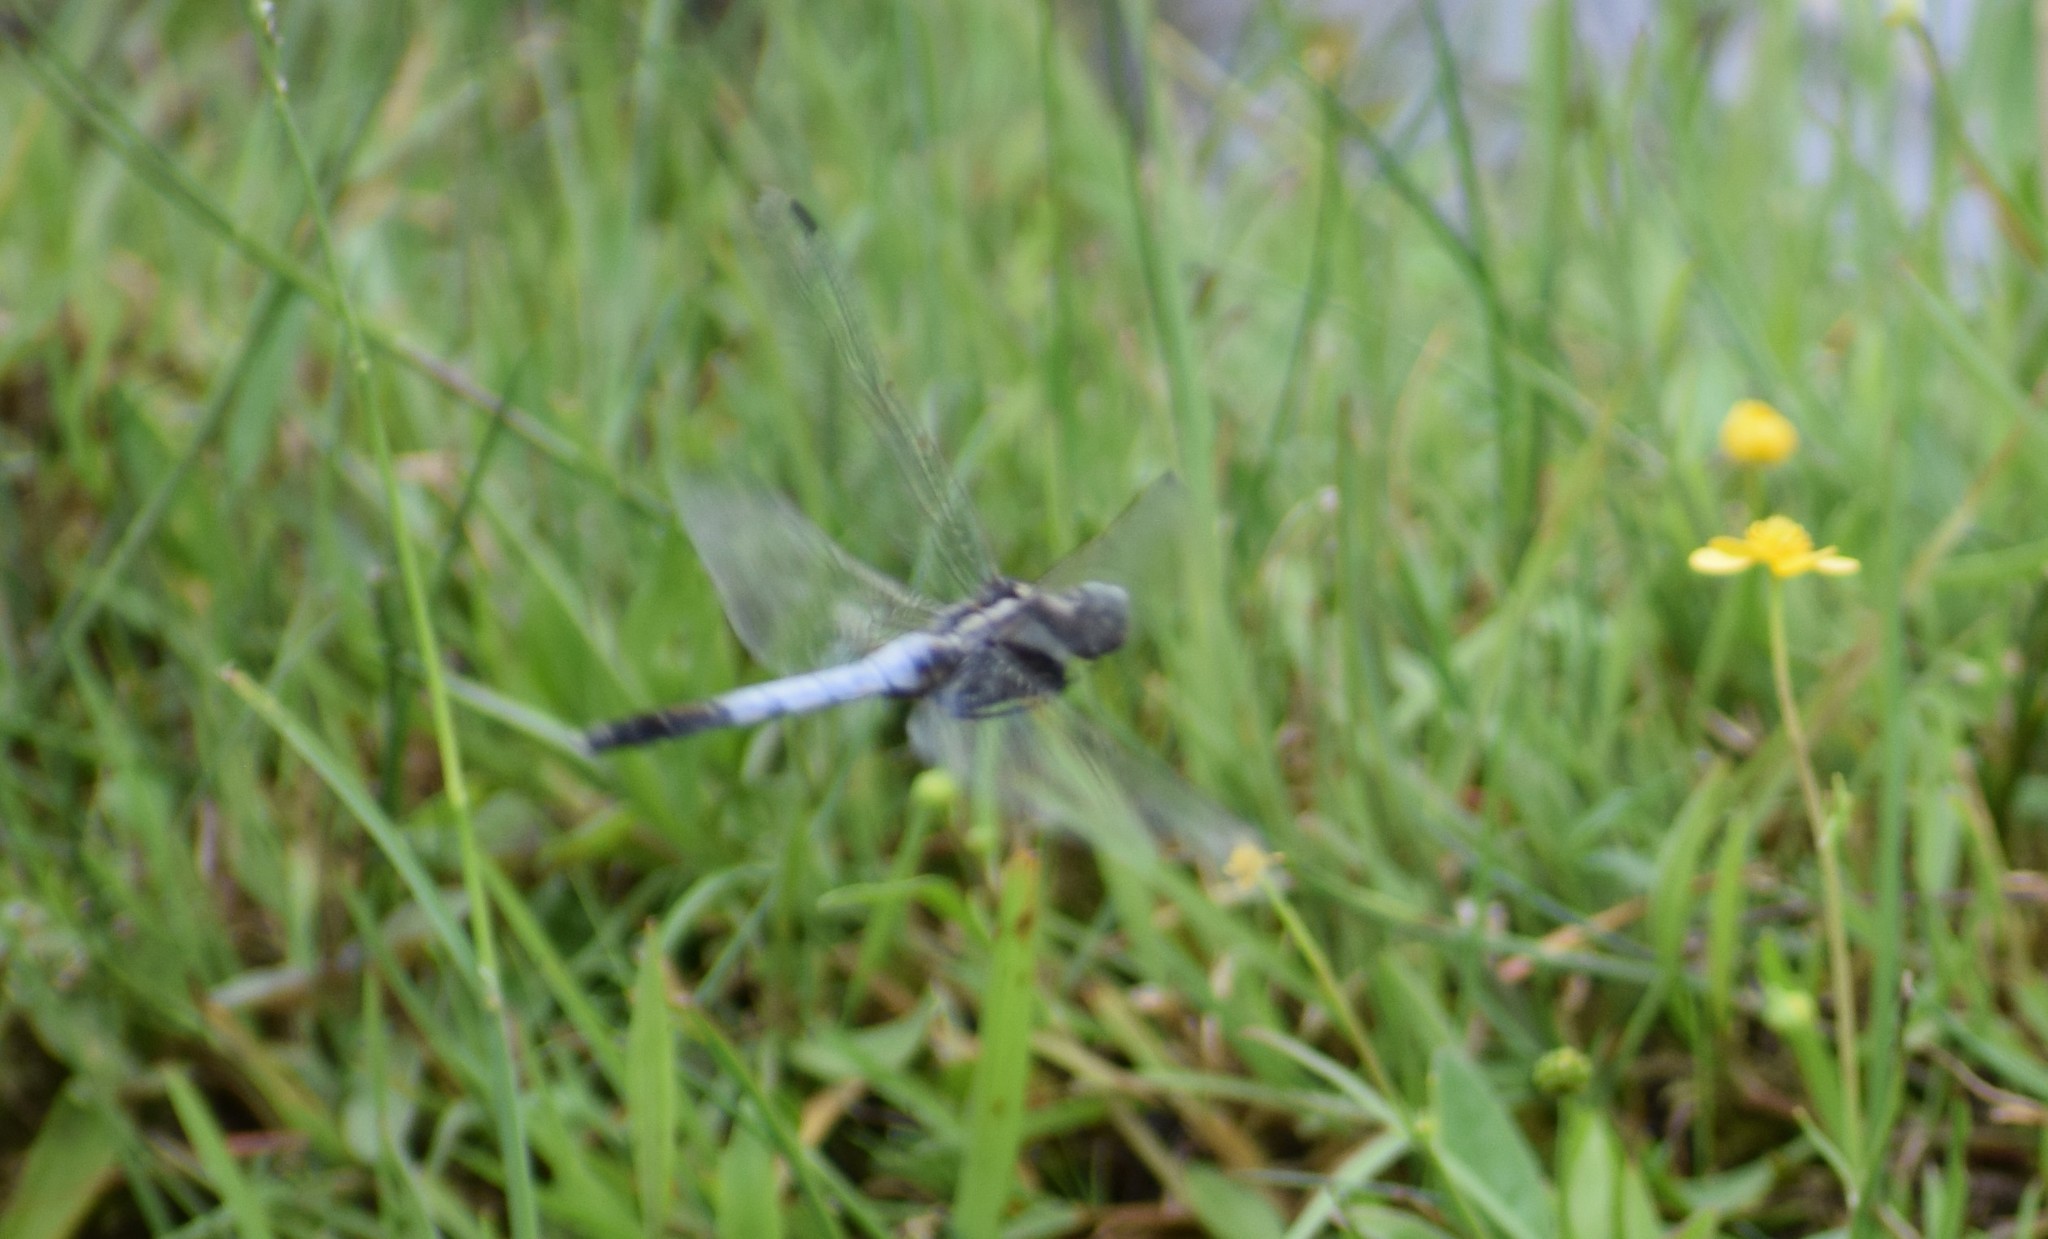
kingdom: Animalia
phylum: Arthropoda
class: Insecta
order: Odonata
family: Libellulidae
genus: Orthetrum
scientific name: Orthetrum albistylum
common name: White-tailed skimmer
